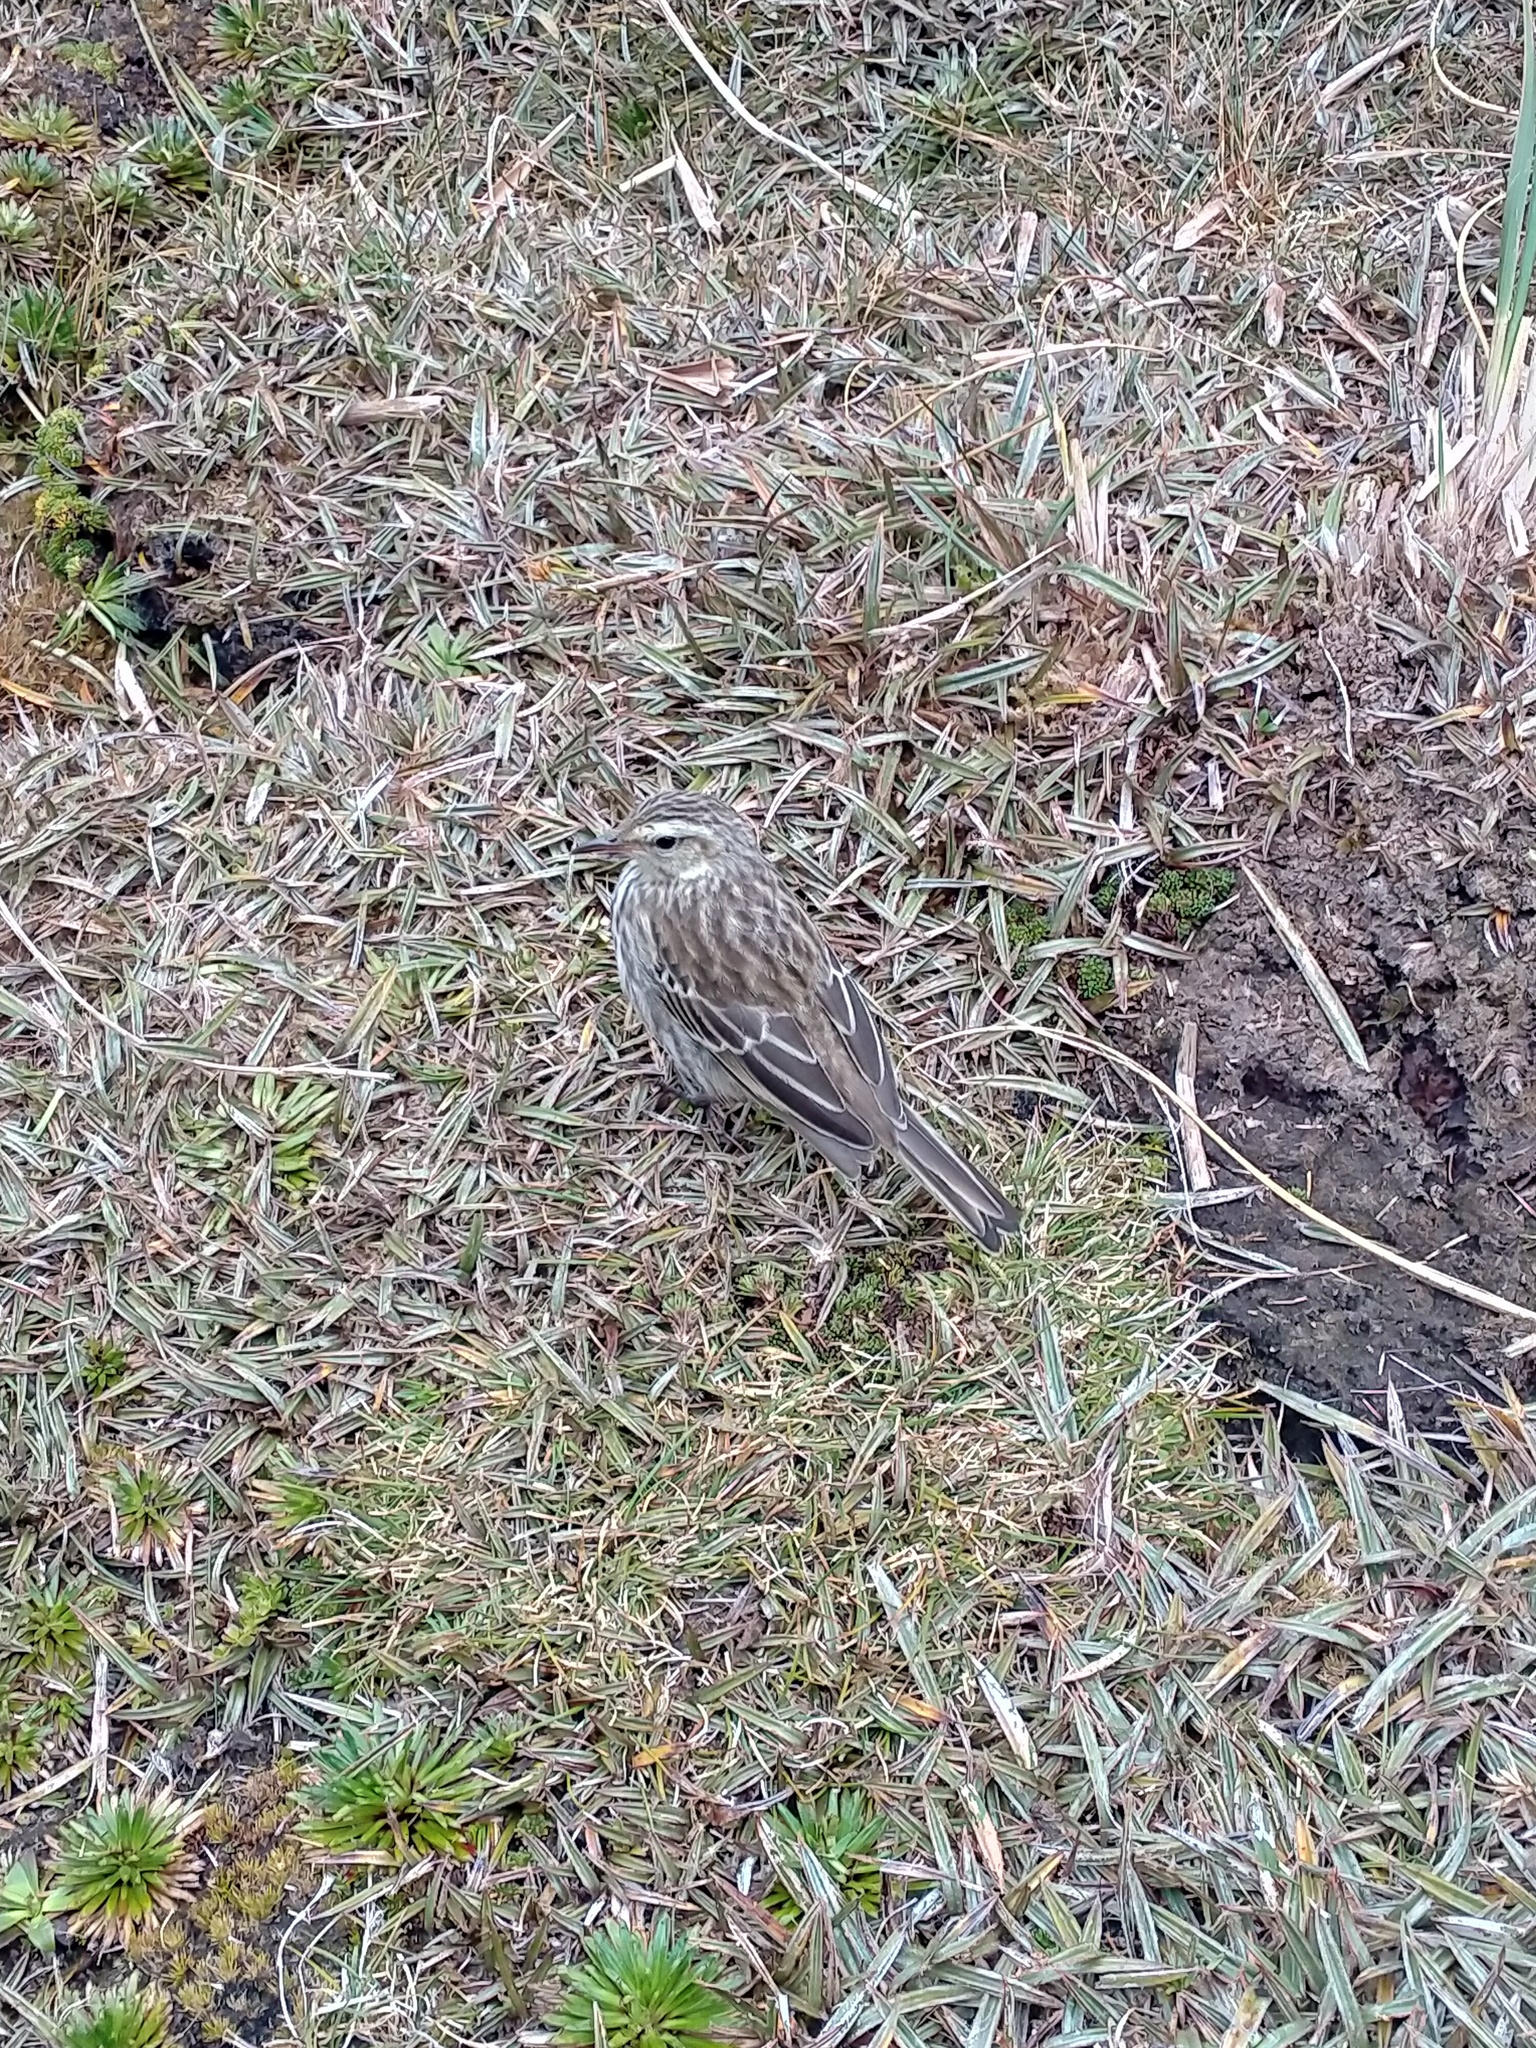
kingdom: Animalia
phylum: Chordata
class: Aves
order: Passeriformes
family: Motacillidae
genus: Anthus
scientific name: Anthus novaeseelandiae
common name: New zealand pipit
